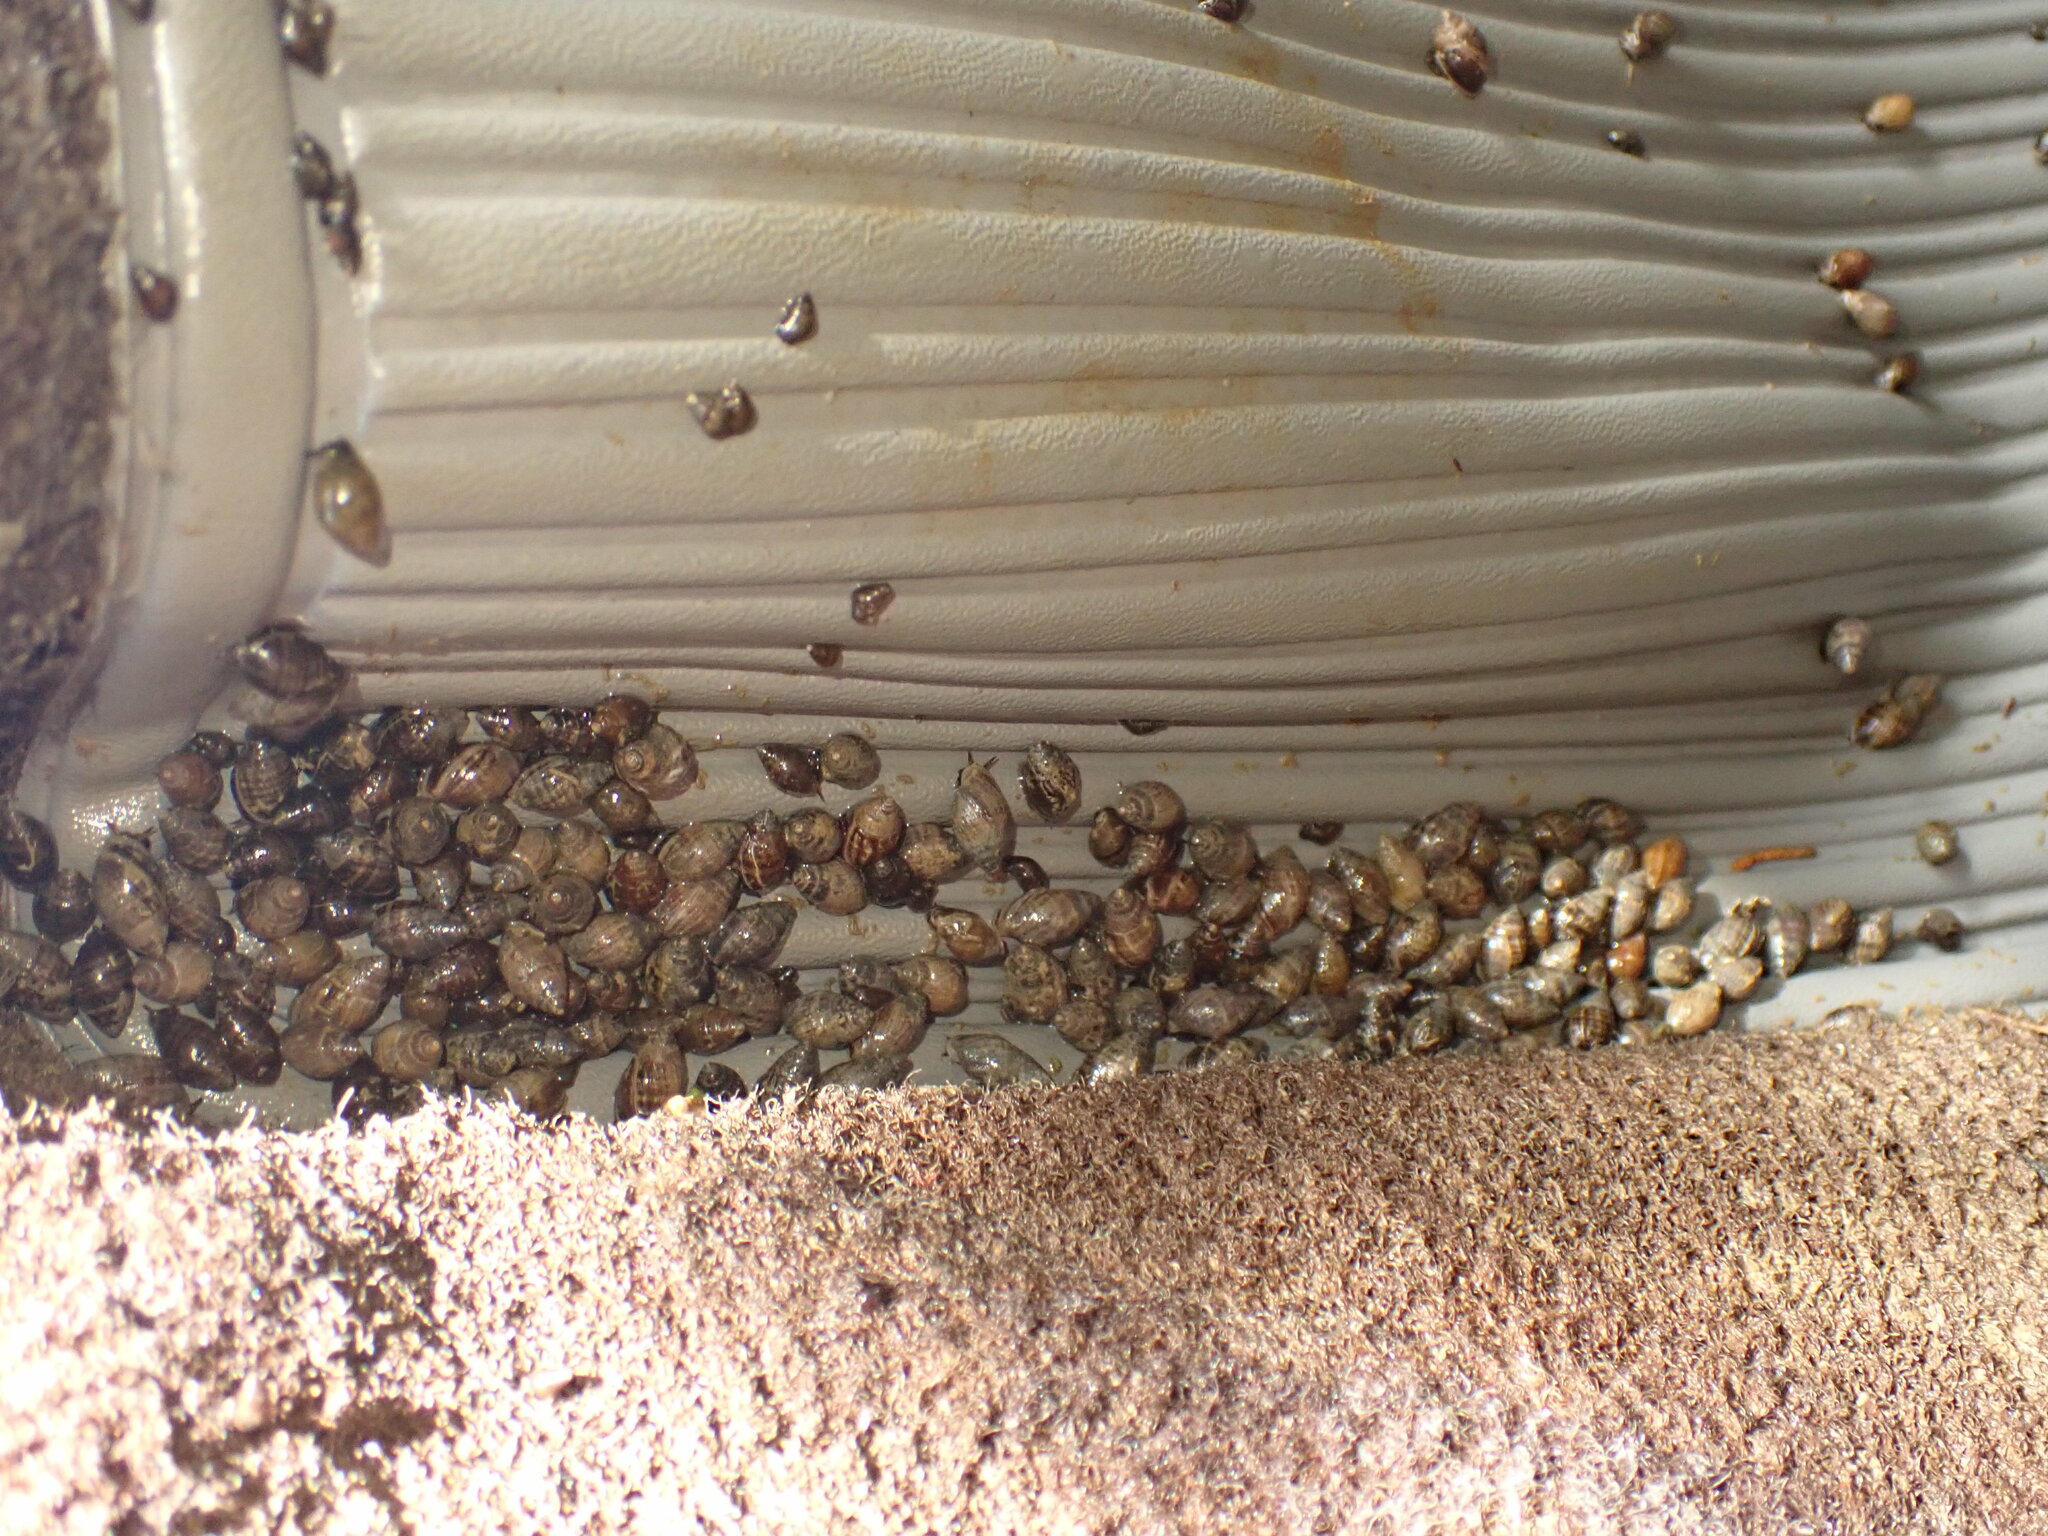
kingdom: Animalia
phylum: Mollusca
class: Gastropoda
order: Ellobiida
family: Ellobiidae
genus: Pleuroloba
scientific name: Pleuroloba costellaris
